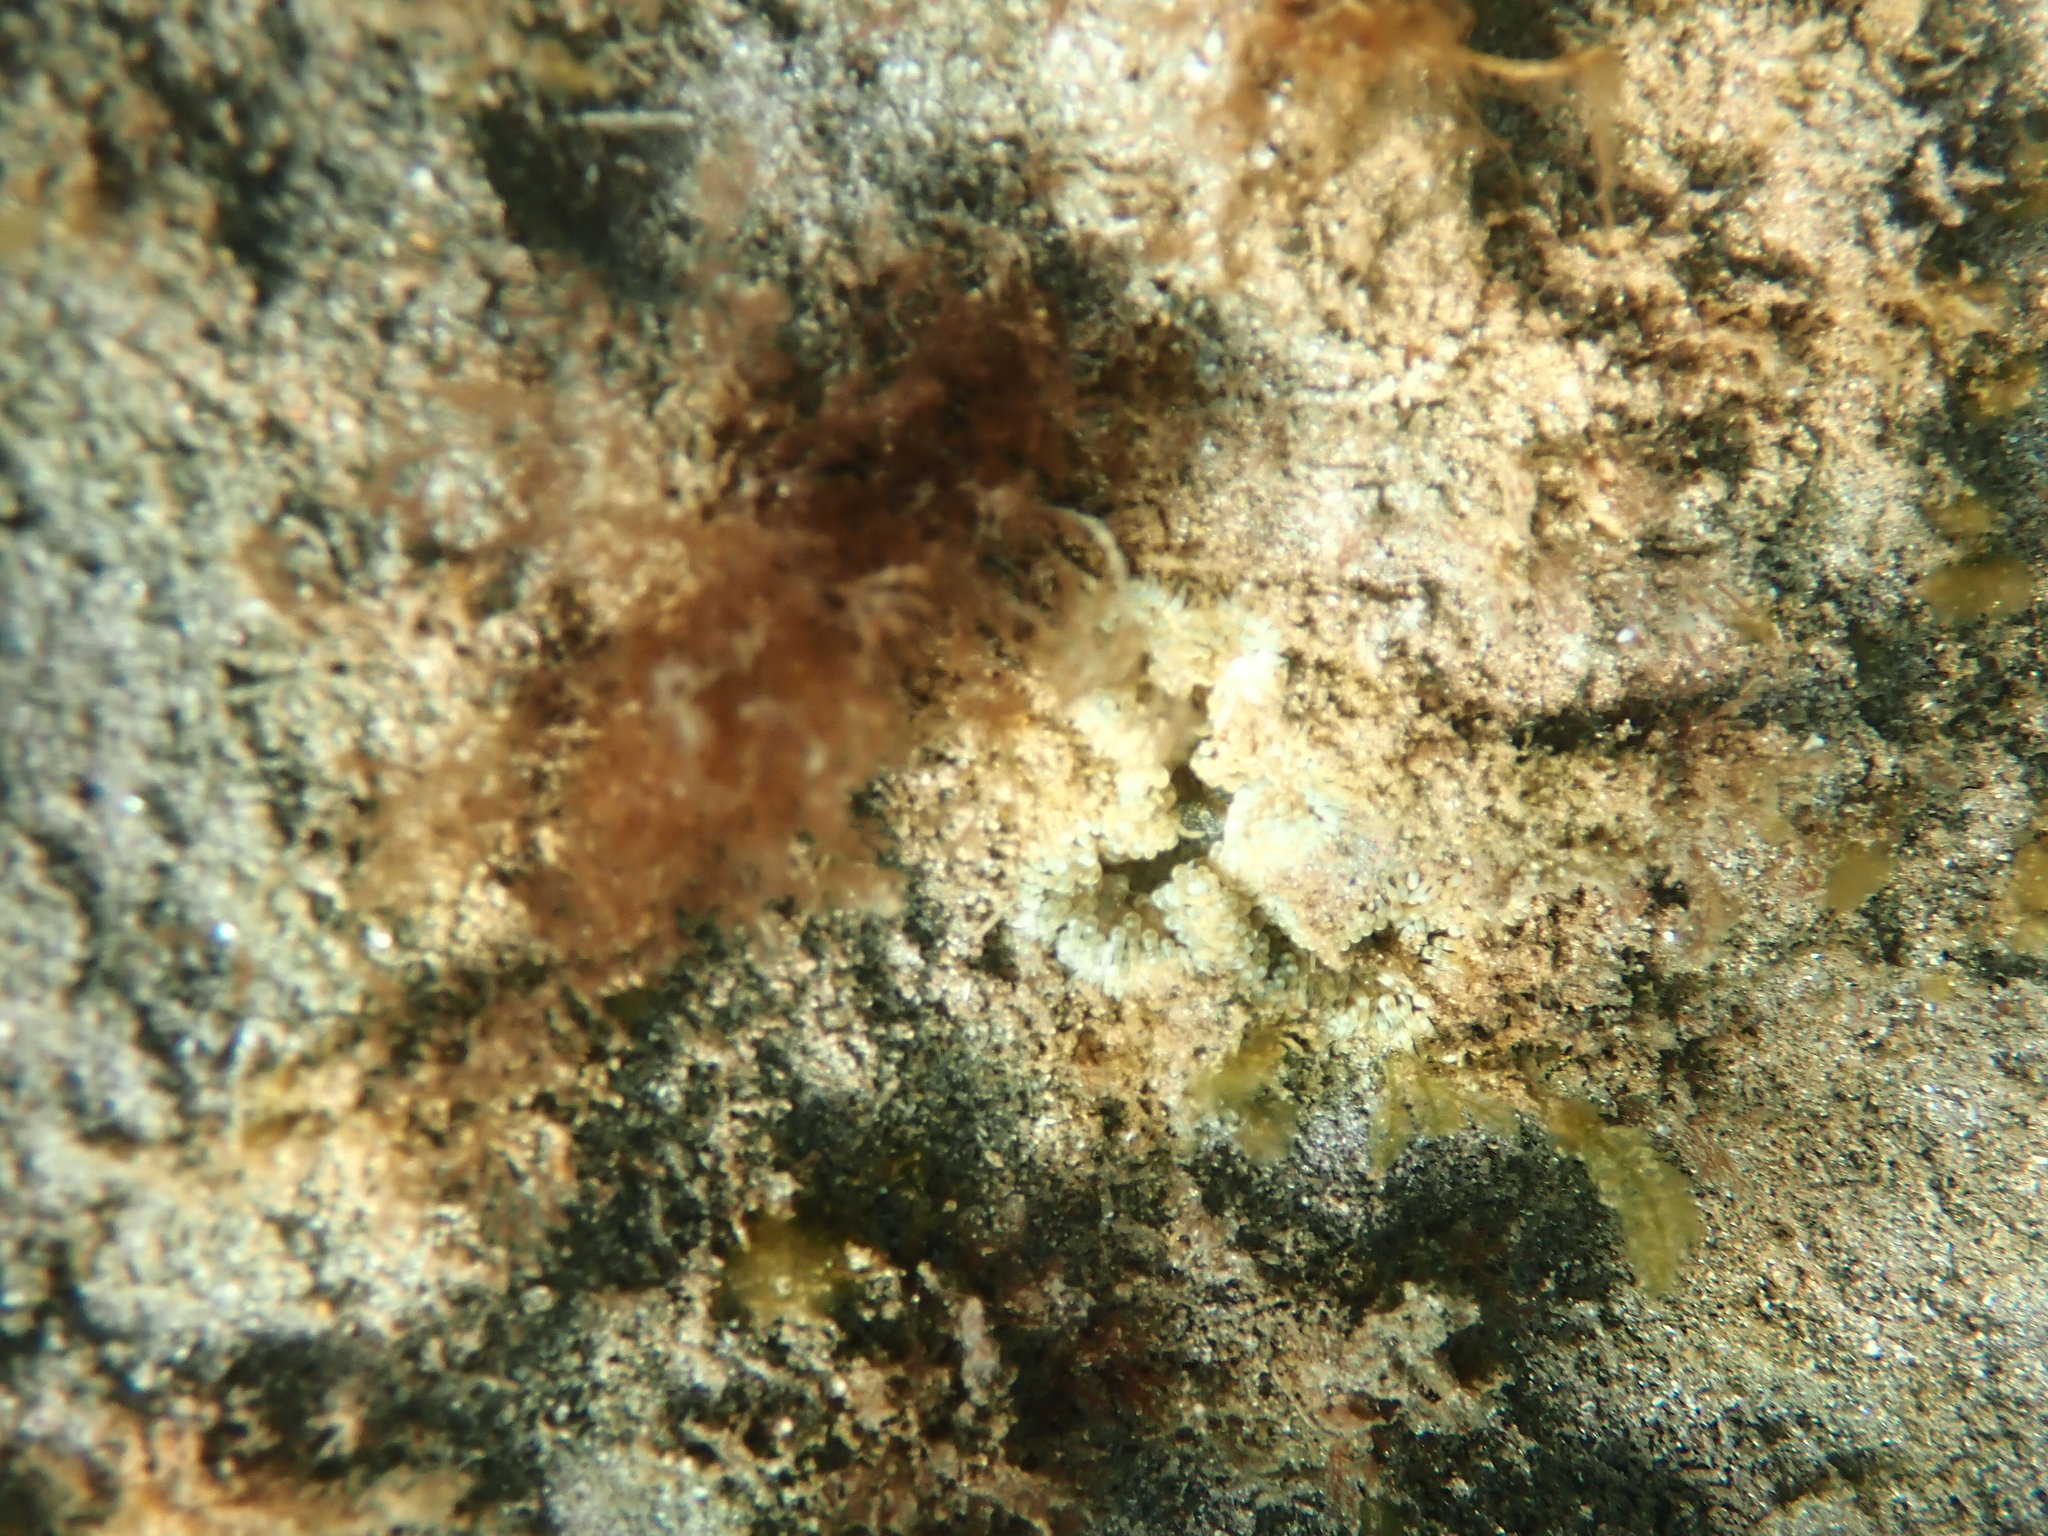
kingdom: Animalia
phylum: Cnidaria
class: Anthozoa
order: Actiniaria
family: Sagartiidae
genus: Cereus
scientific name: Cereus pedunculatus
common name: Daisy anemone
